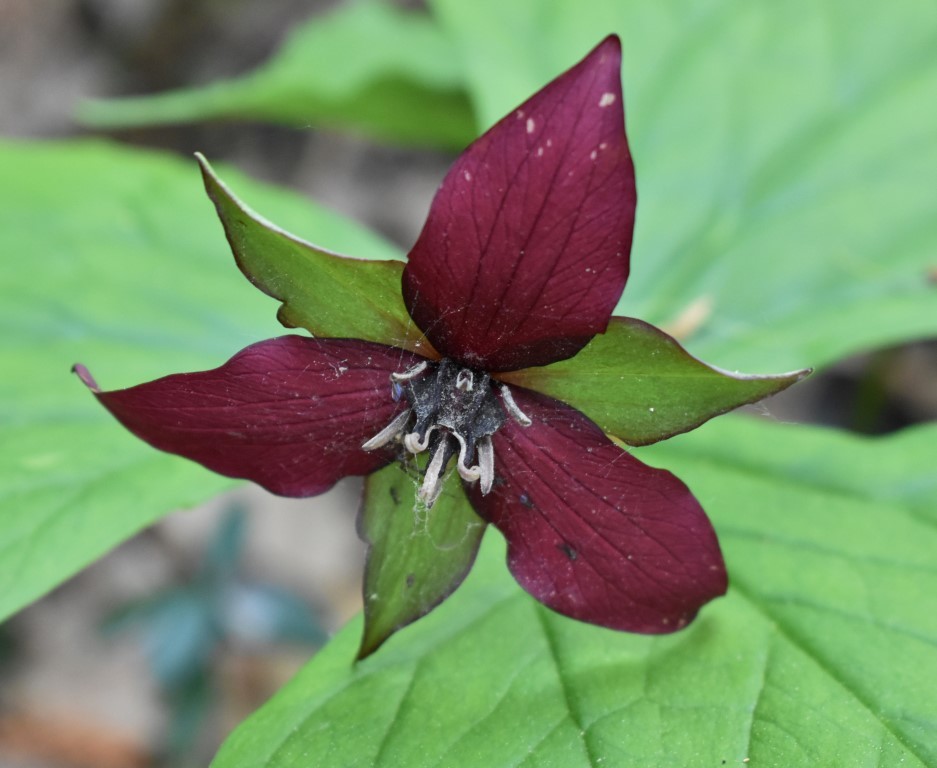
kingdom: Plantae
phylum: Tracheophyta
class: Liliopsida
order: Liliales
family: Melanthiaceae
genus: Trillium
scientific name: Trillium erectum
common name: Purple trillium
